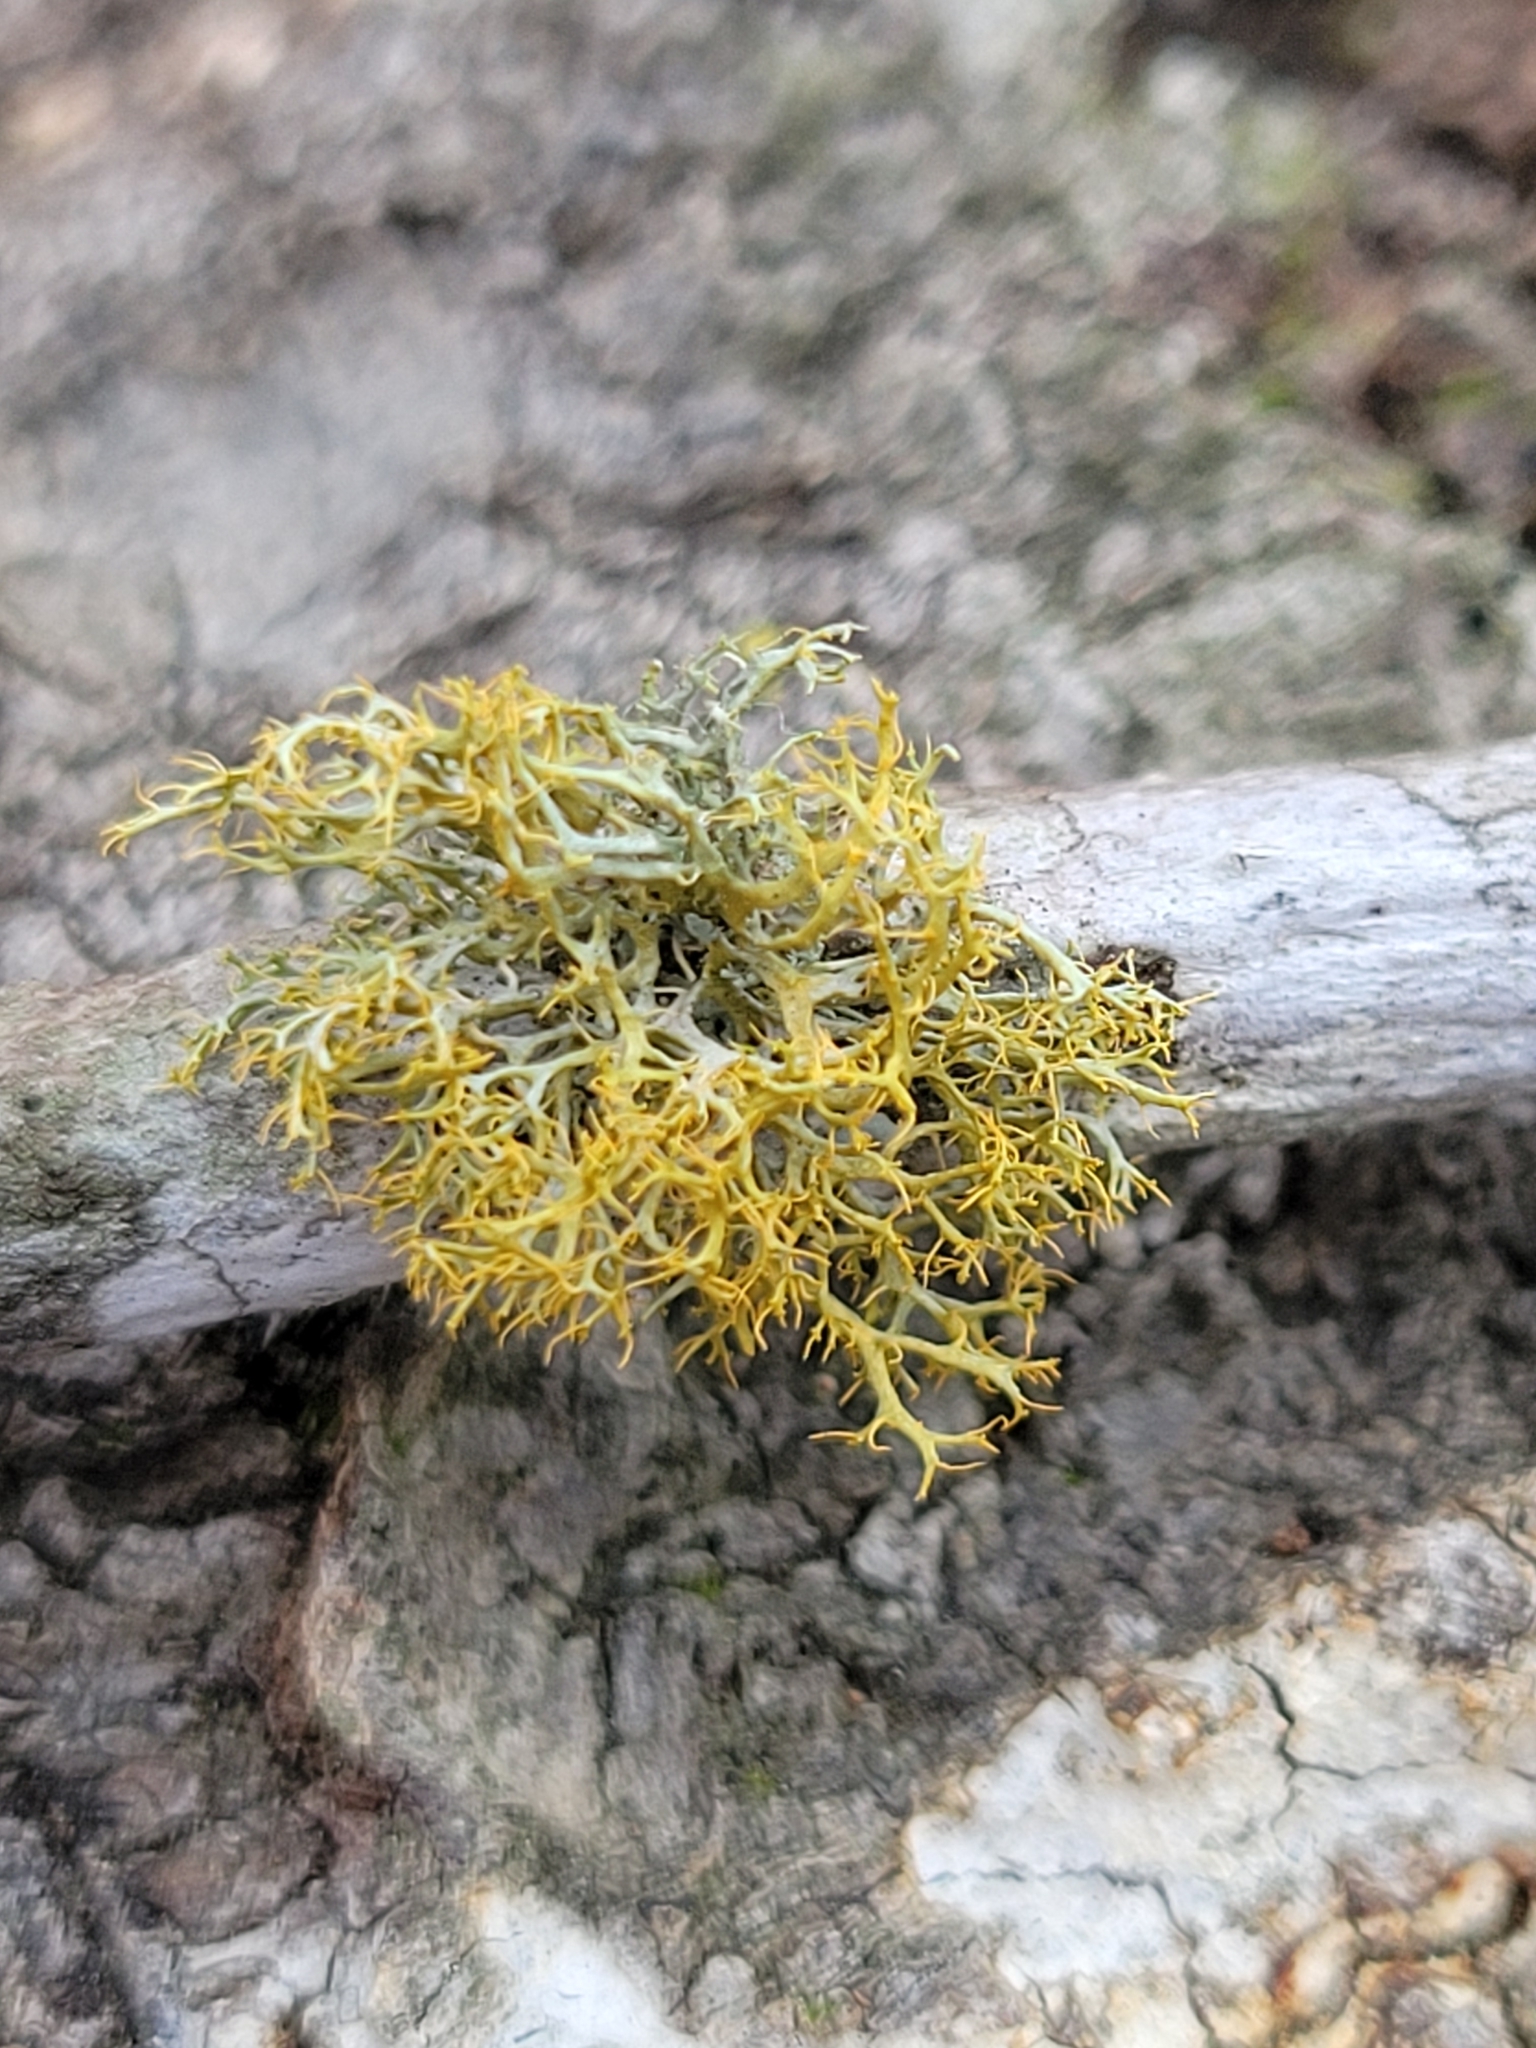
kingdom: Fungi
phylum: Ascomycota
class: Lecanoromycetes
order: Teloschistales
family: Teloschistaceae
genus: Niorma
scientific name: Niorma chrysophthalma
